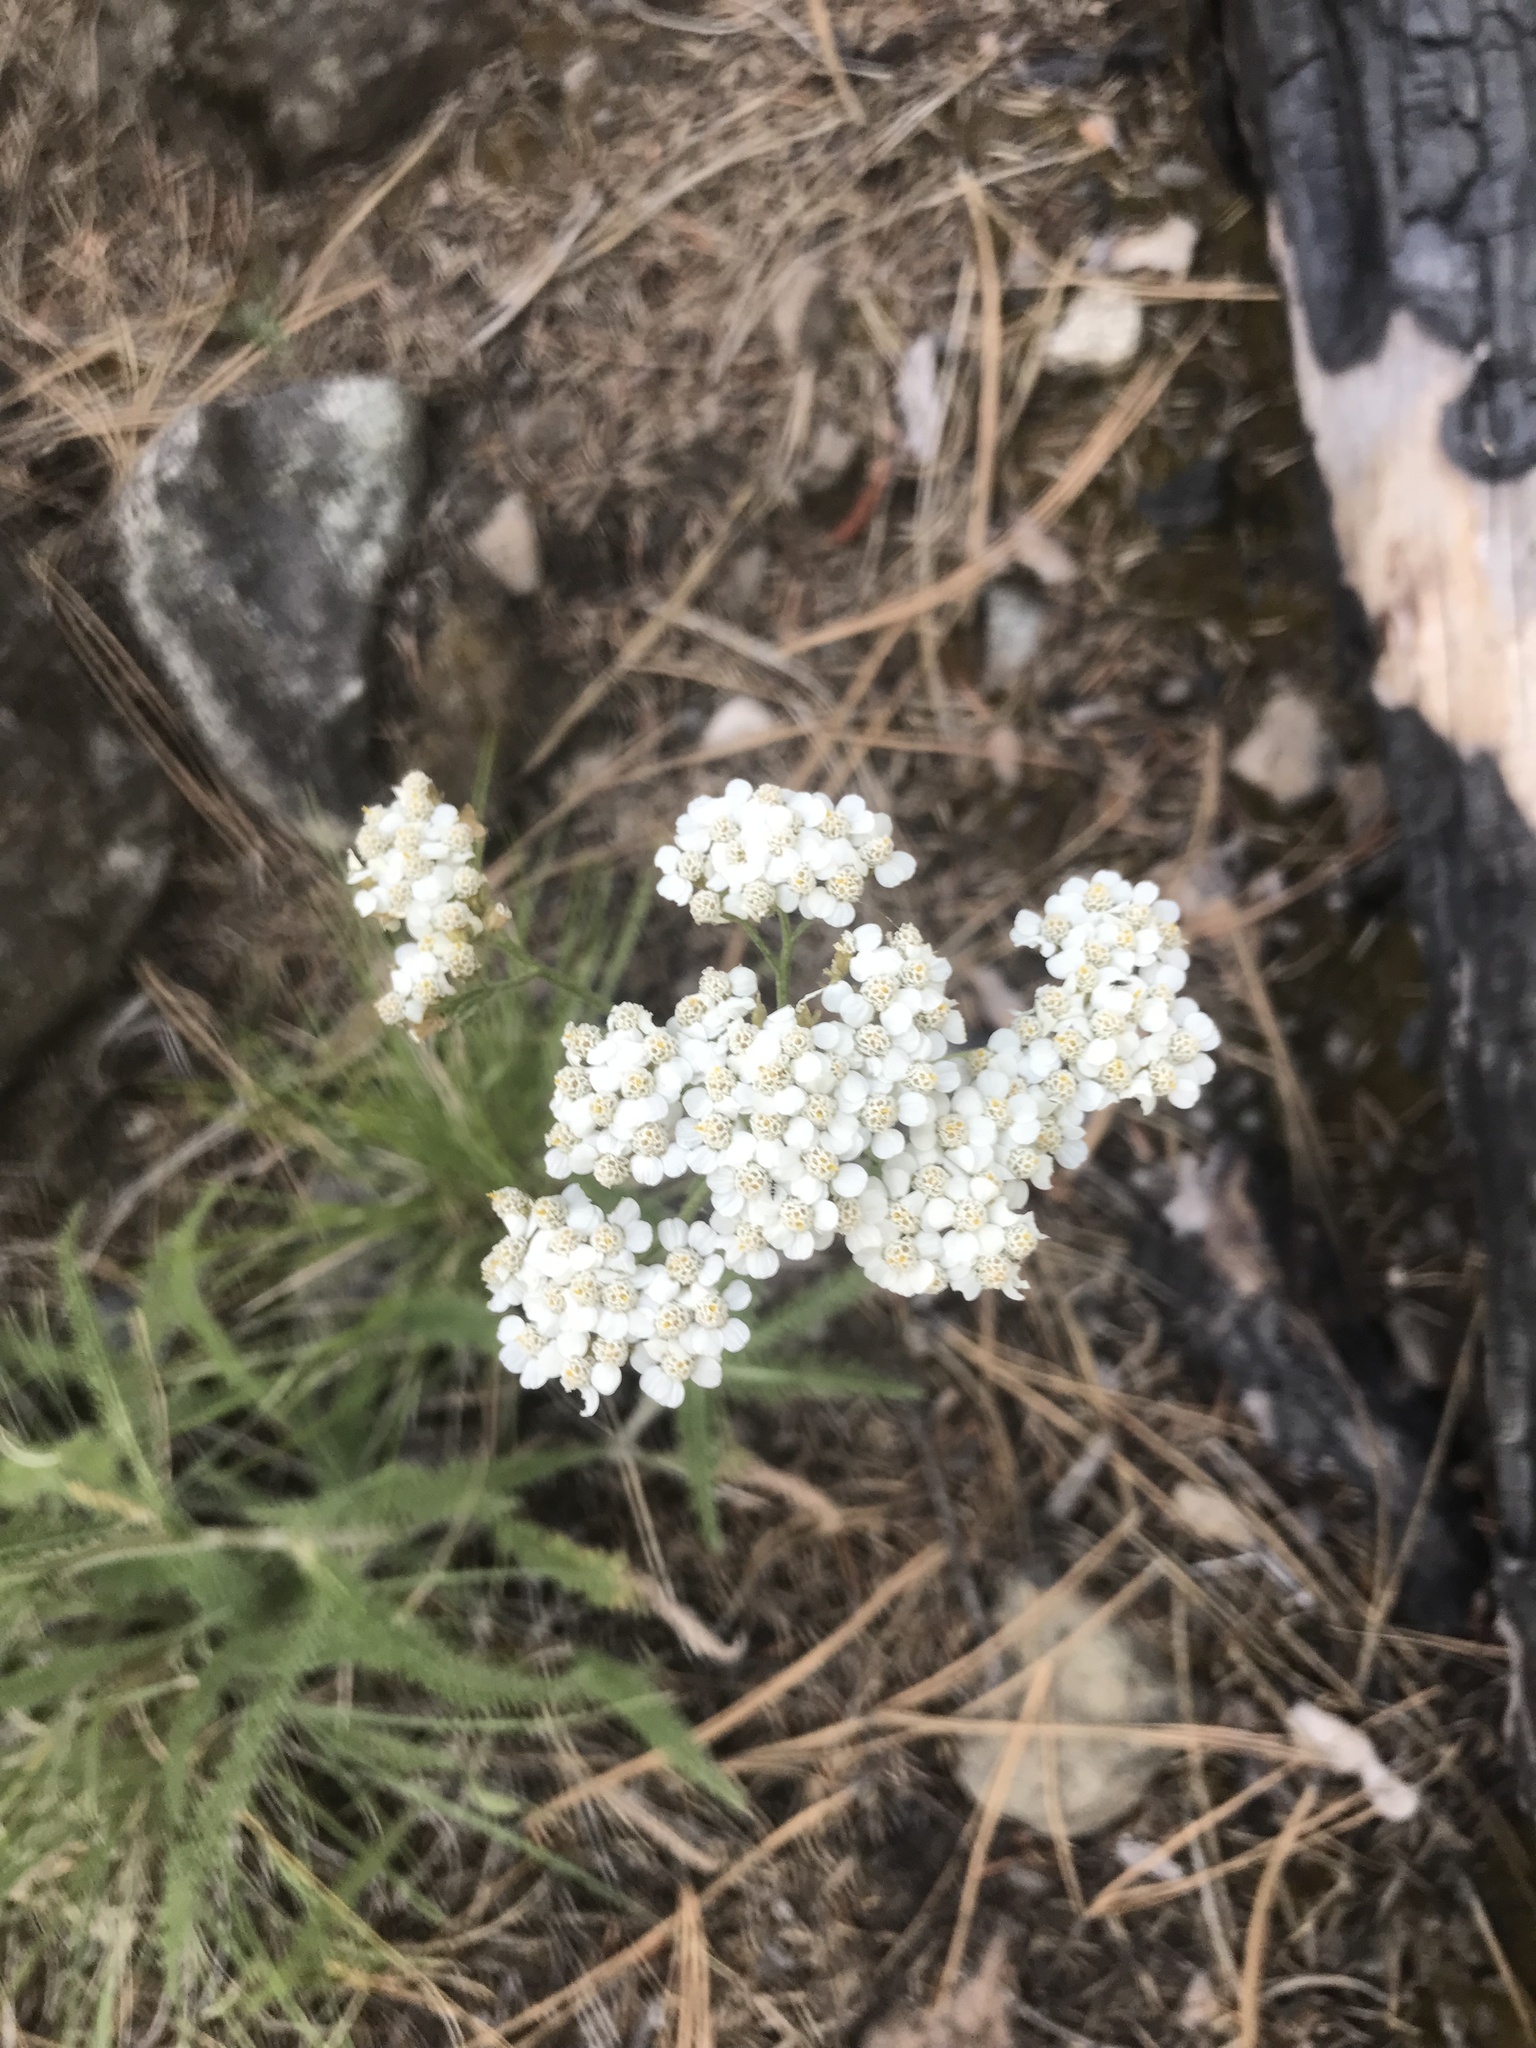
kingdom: Plantae
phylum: Tracheophyta
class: Magnoliopsida
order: Asterales
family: Asteraceae
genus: Achillea
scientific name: Achillea millefolium
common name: Yarrow
